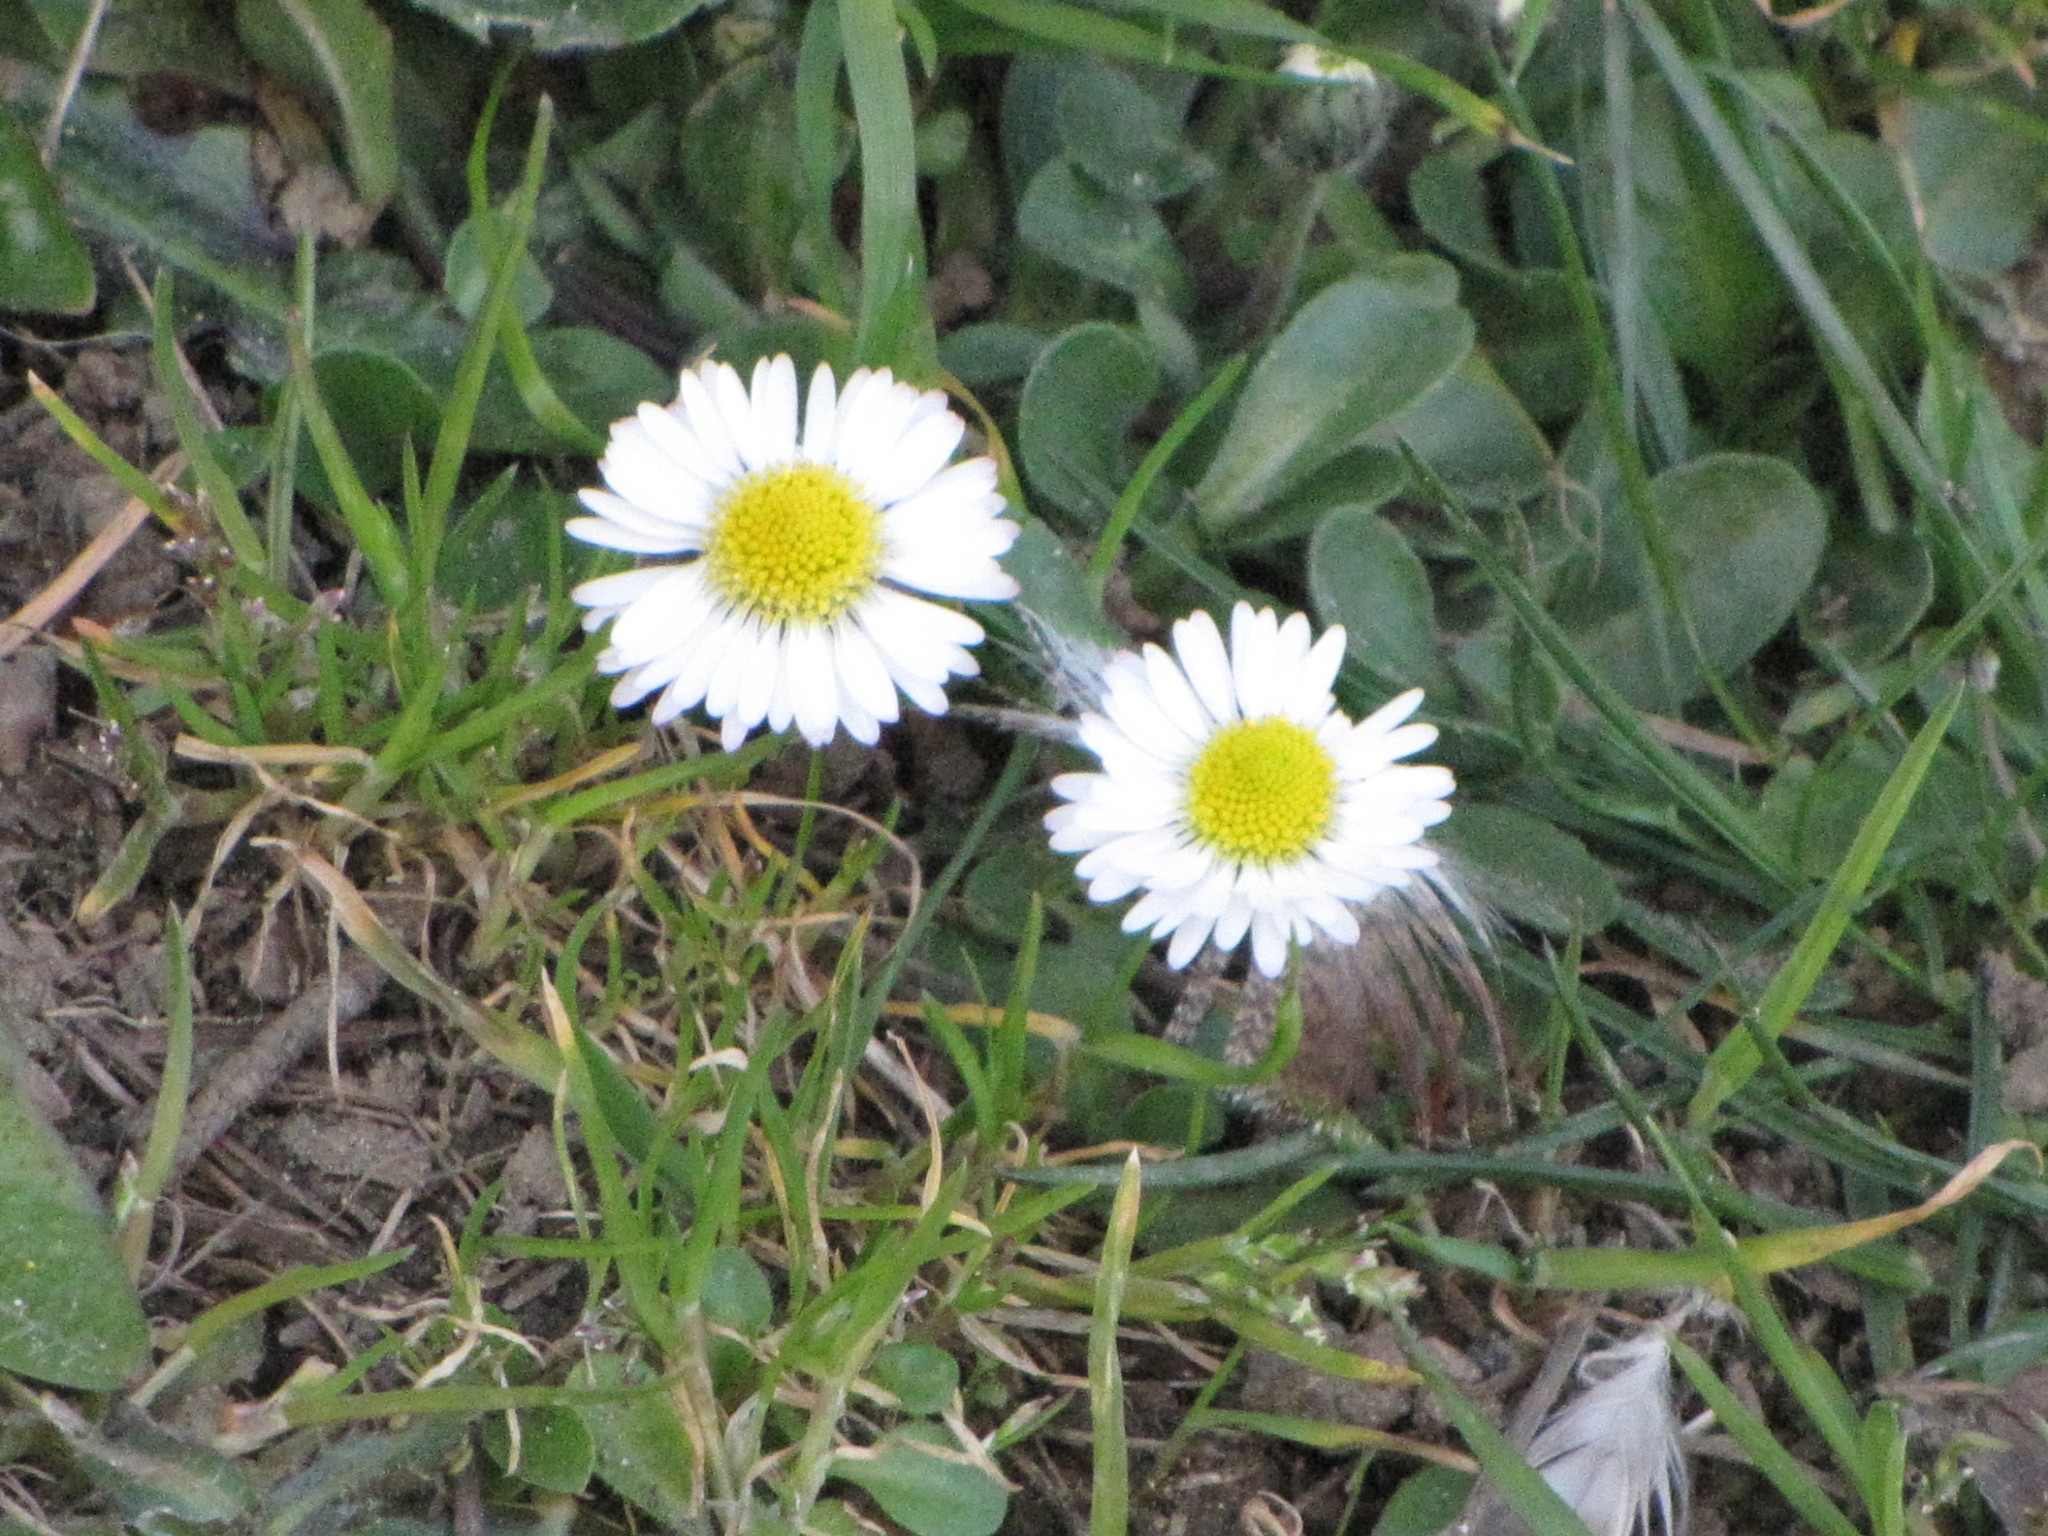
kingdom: Plantae
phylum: Tracheophyta
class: Magnoliopsida
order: Asterales
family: Asteraceae
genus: Bellis
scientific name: Bellis perennis
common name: Lawndaisy
